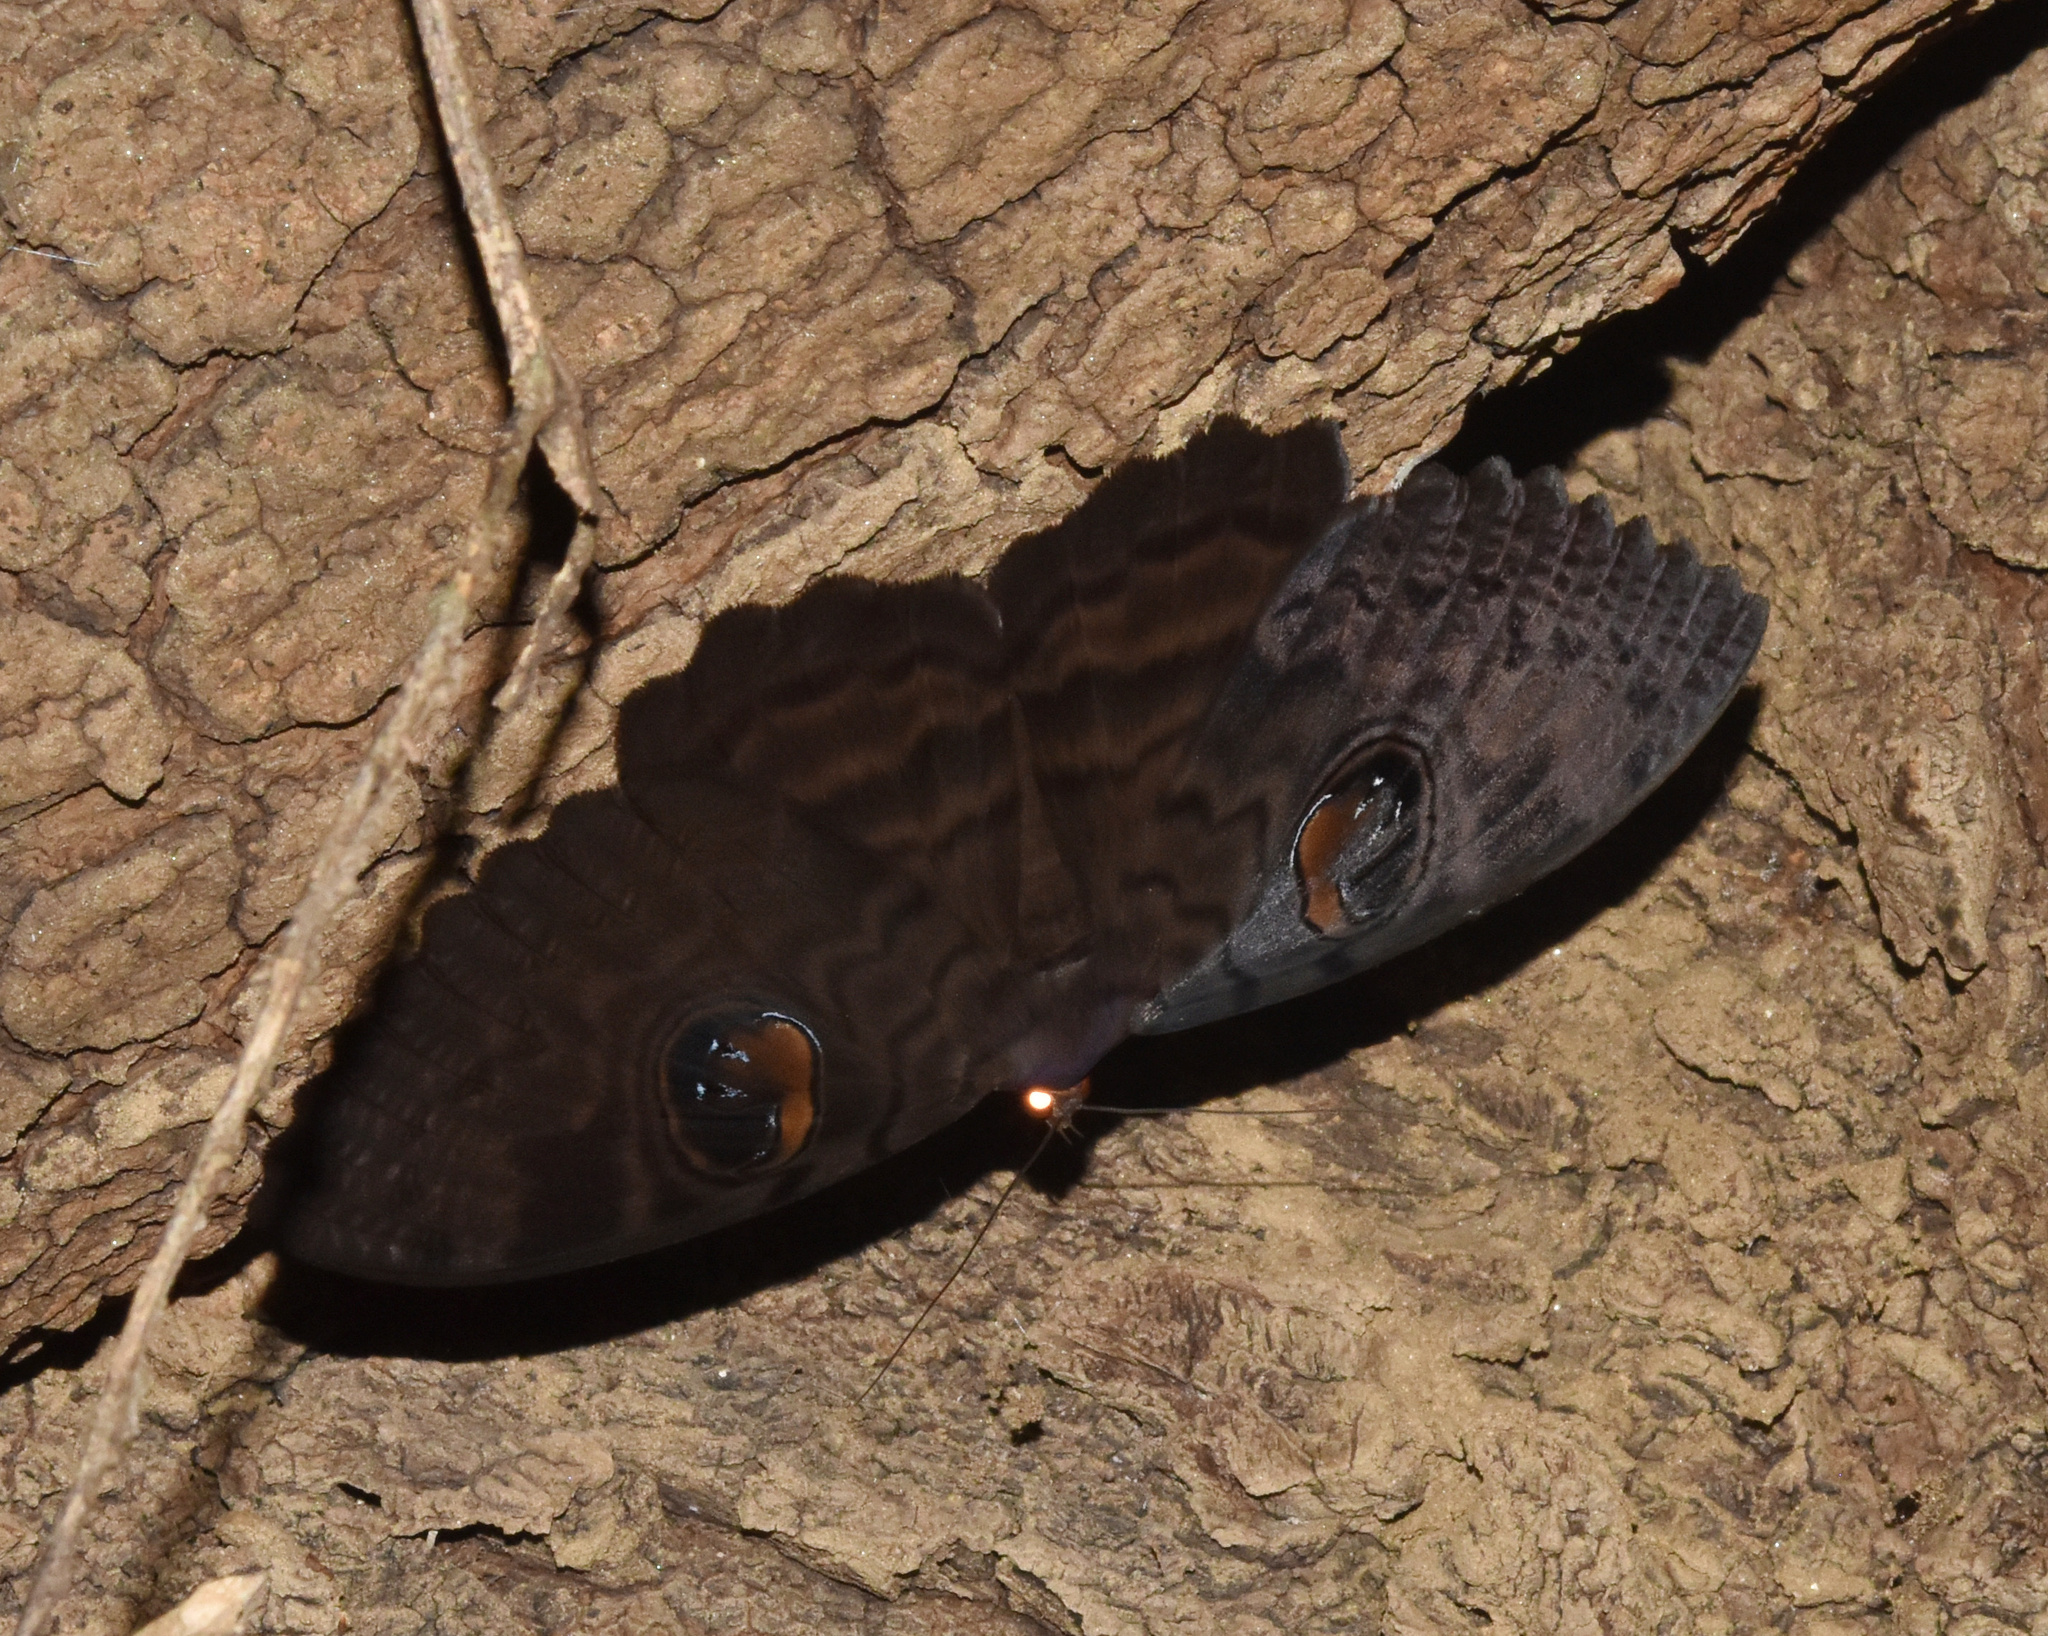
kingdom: Animalia
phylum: Arthropoda
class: Insecta
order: Lepidoptera
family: Erebidae
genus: Erebus
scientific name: Erebus walkeri
